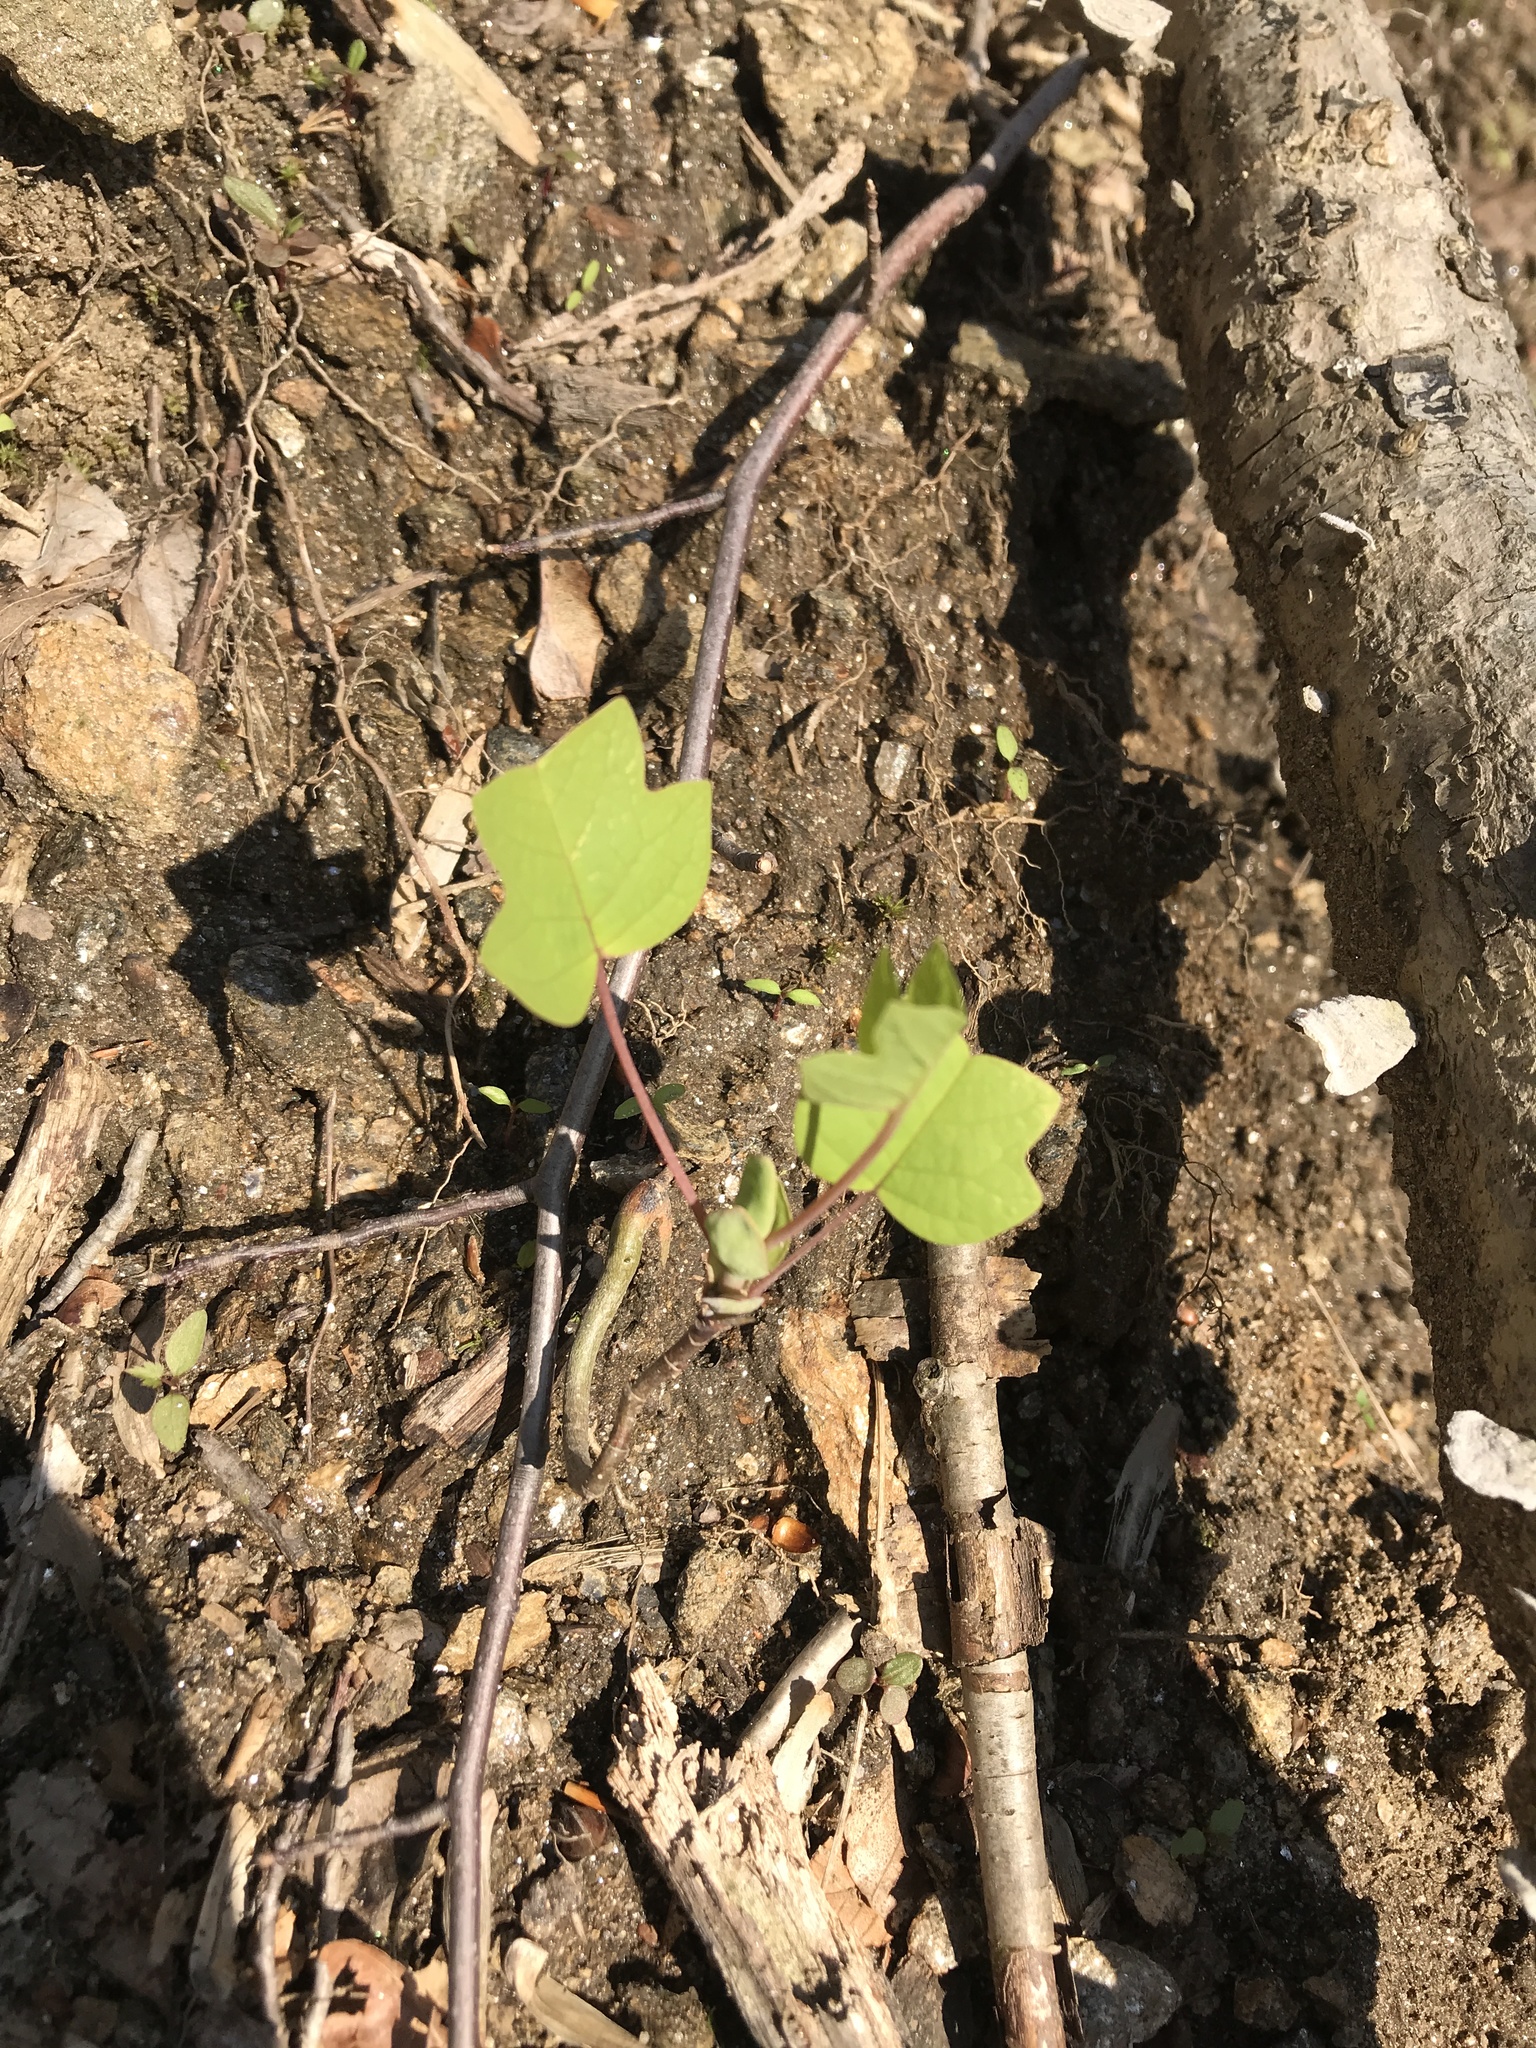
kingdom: Plantae
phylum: Tracheophyta
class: Magnoliopsida
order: Magnoliales
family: Magnoliaceae
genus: Liriodendron
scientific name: Liriodendron tulipifera
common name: Tulip tree
